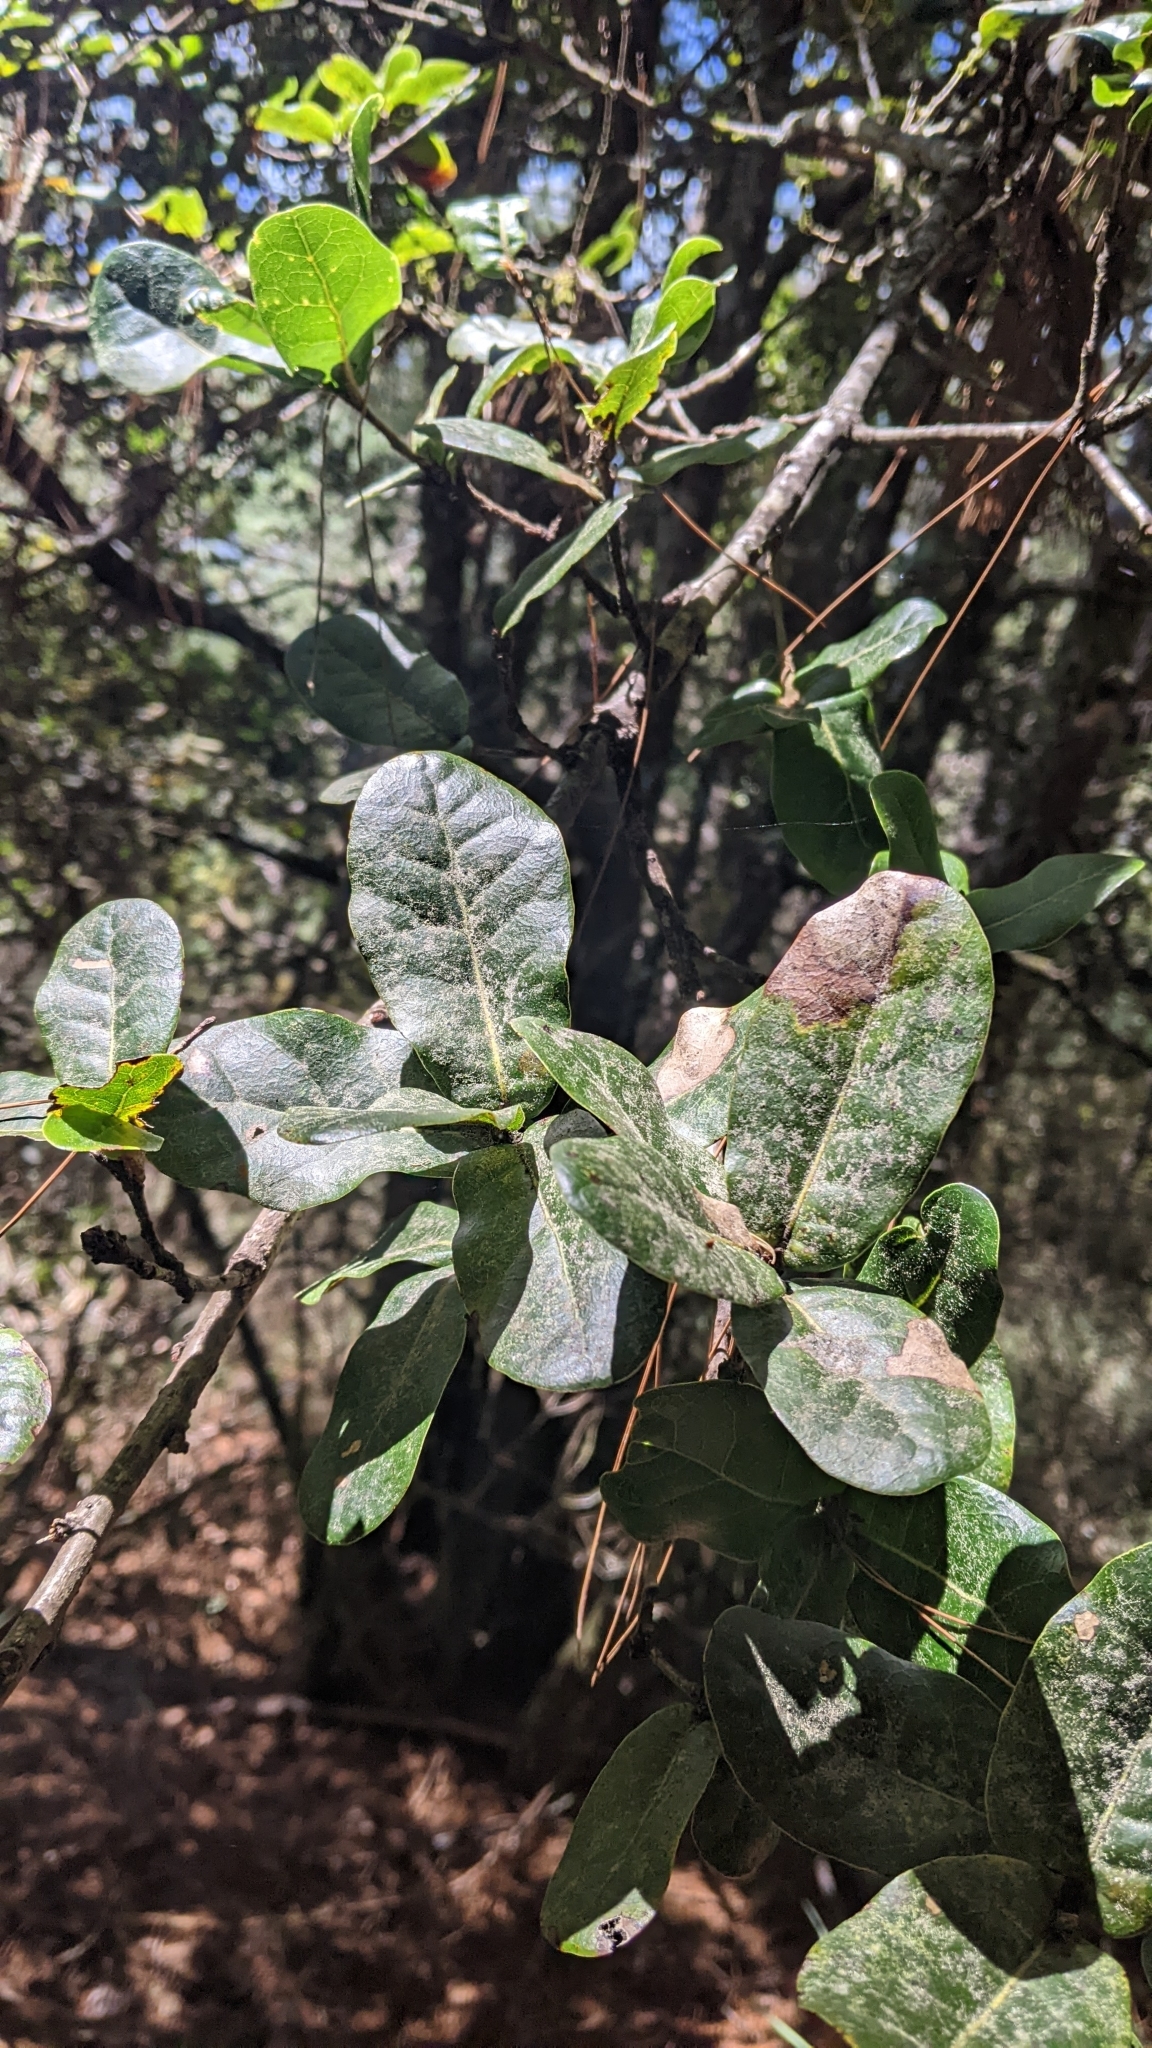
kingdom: Plantae
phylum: Tracheophyta
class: Magnoliopsida
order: Fagales
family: Fagaceae
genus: Quercus
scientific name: Quercus spinosa
